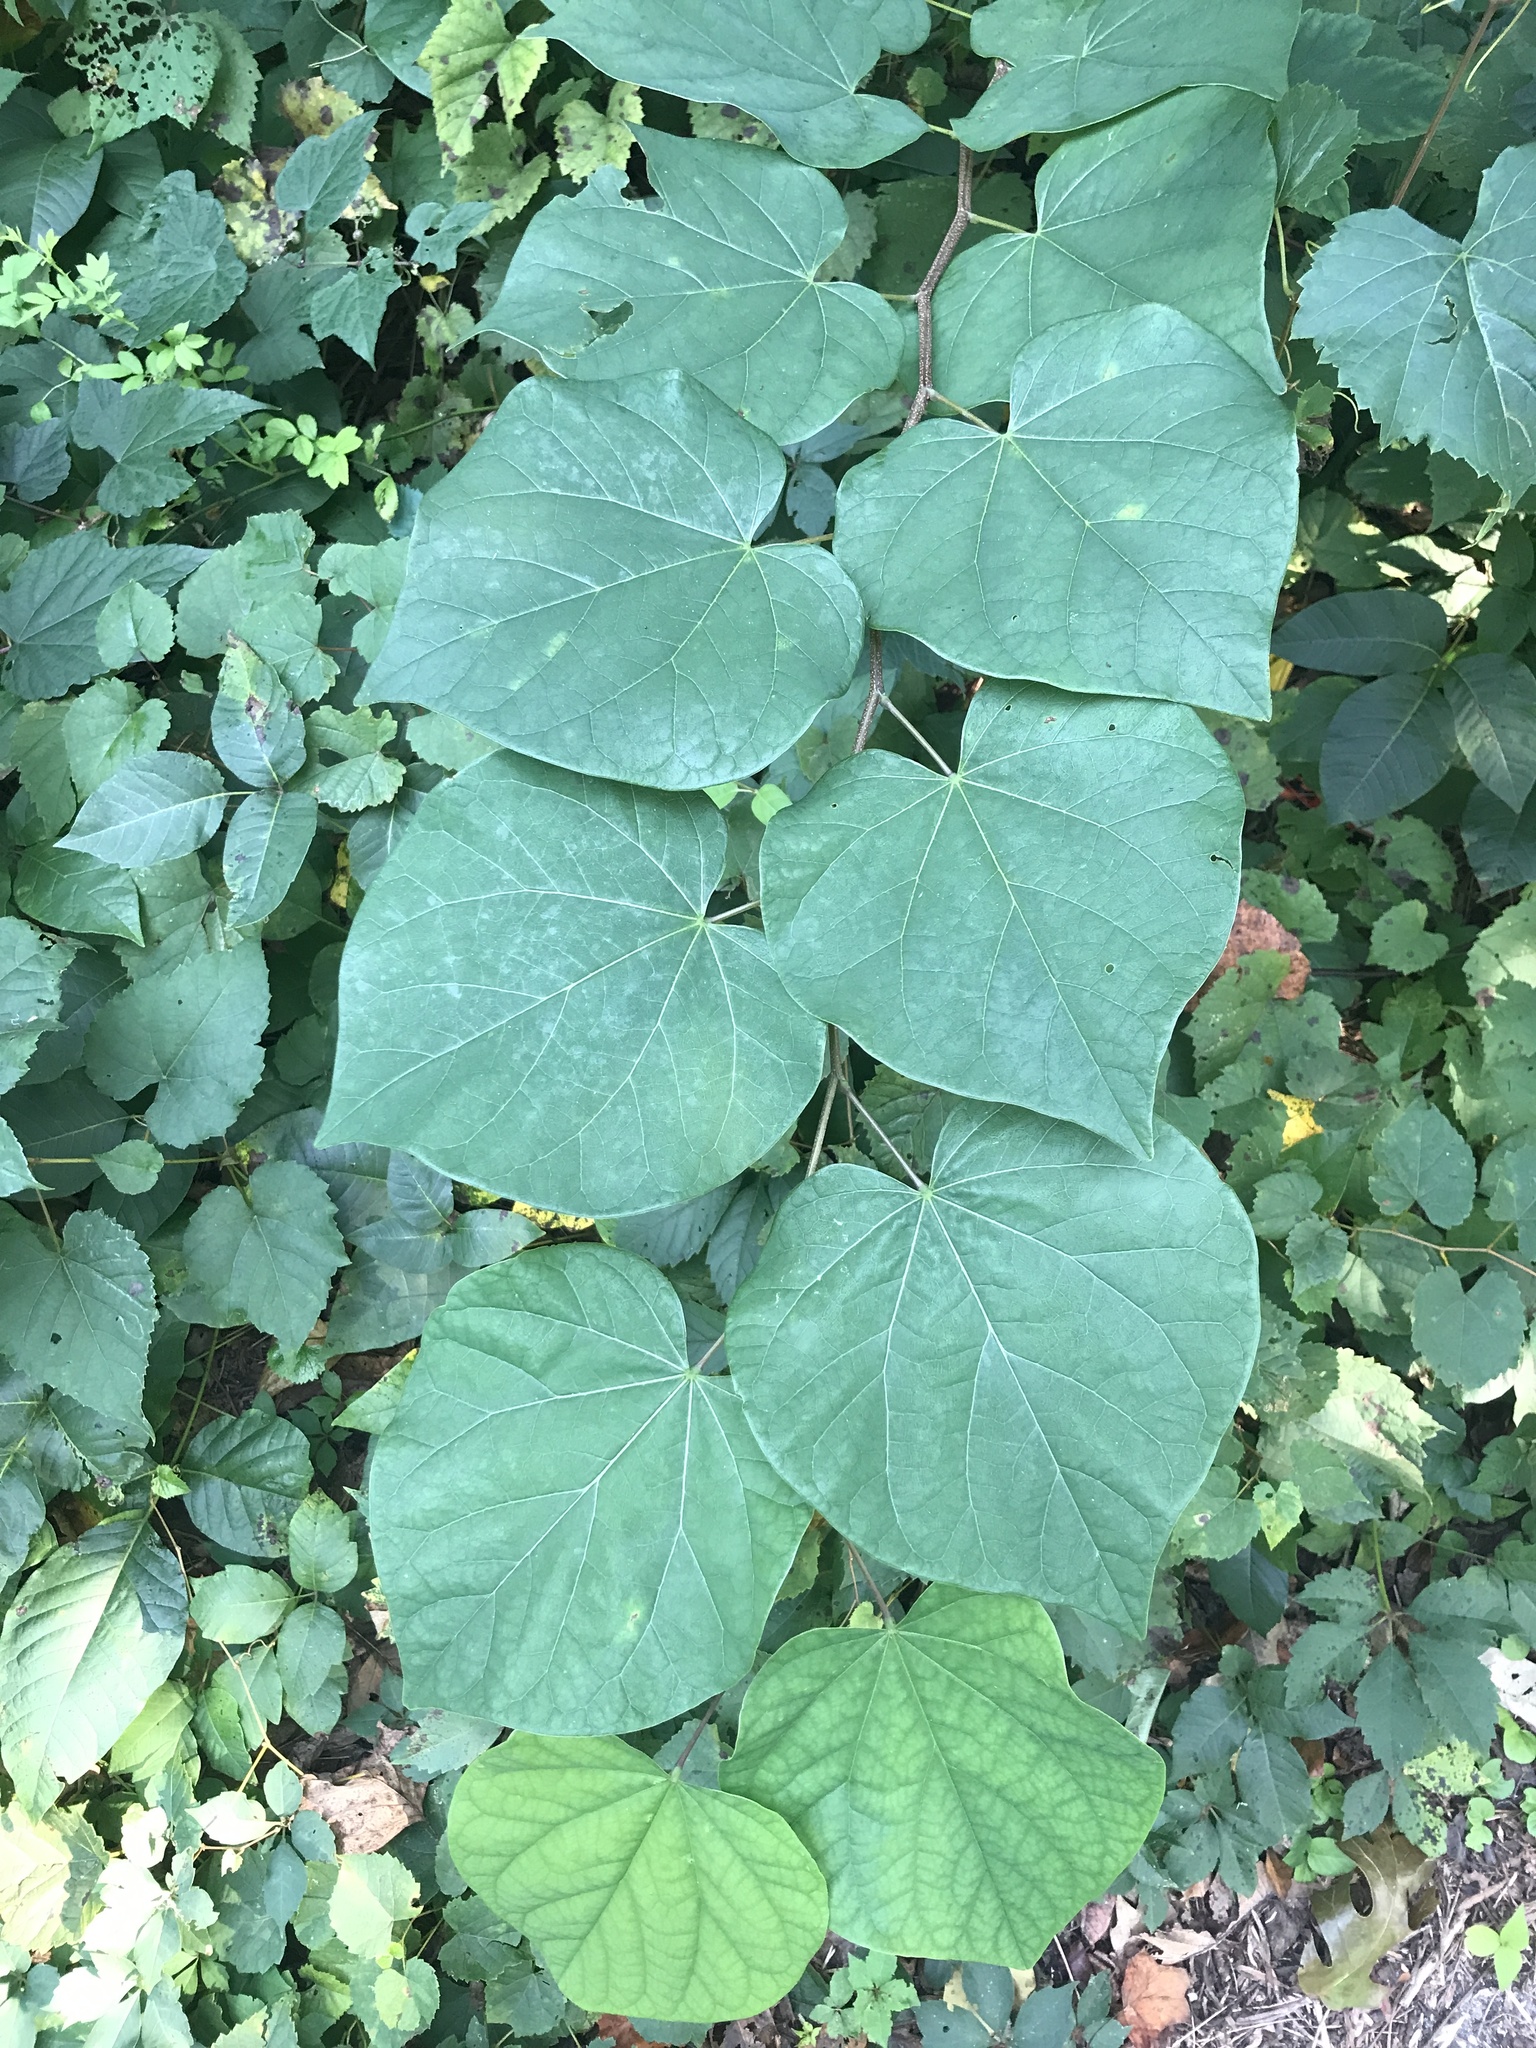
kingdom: Plantae
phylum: Tracheophyta
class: Magnoliopsida
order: Fabales
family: Fabaceae
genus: Cercis
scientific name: Cercis canadensis
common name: Eastern redbud
